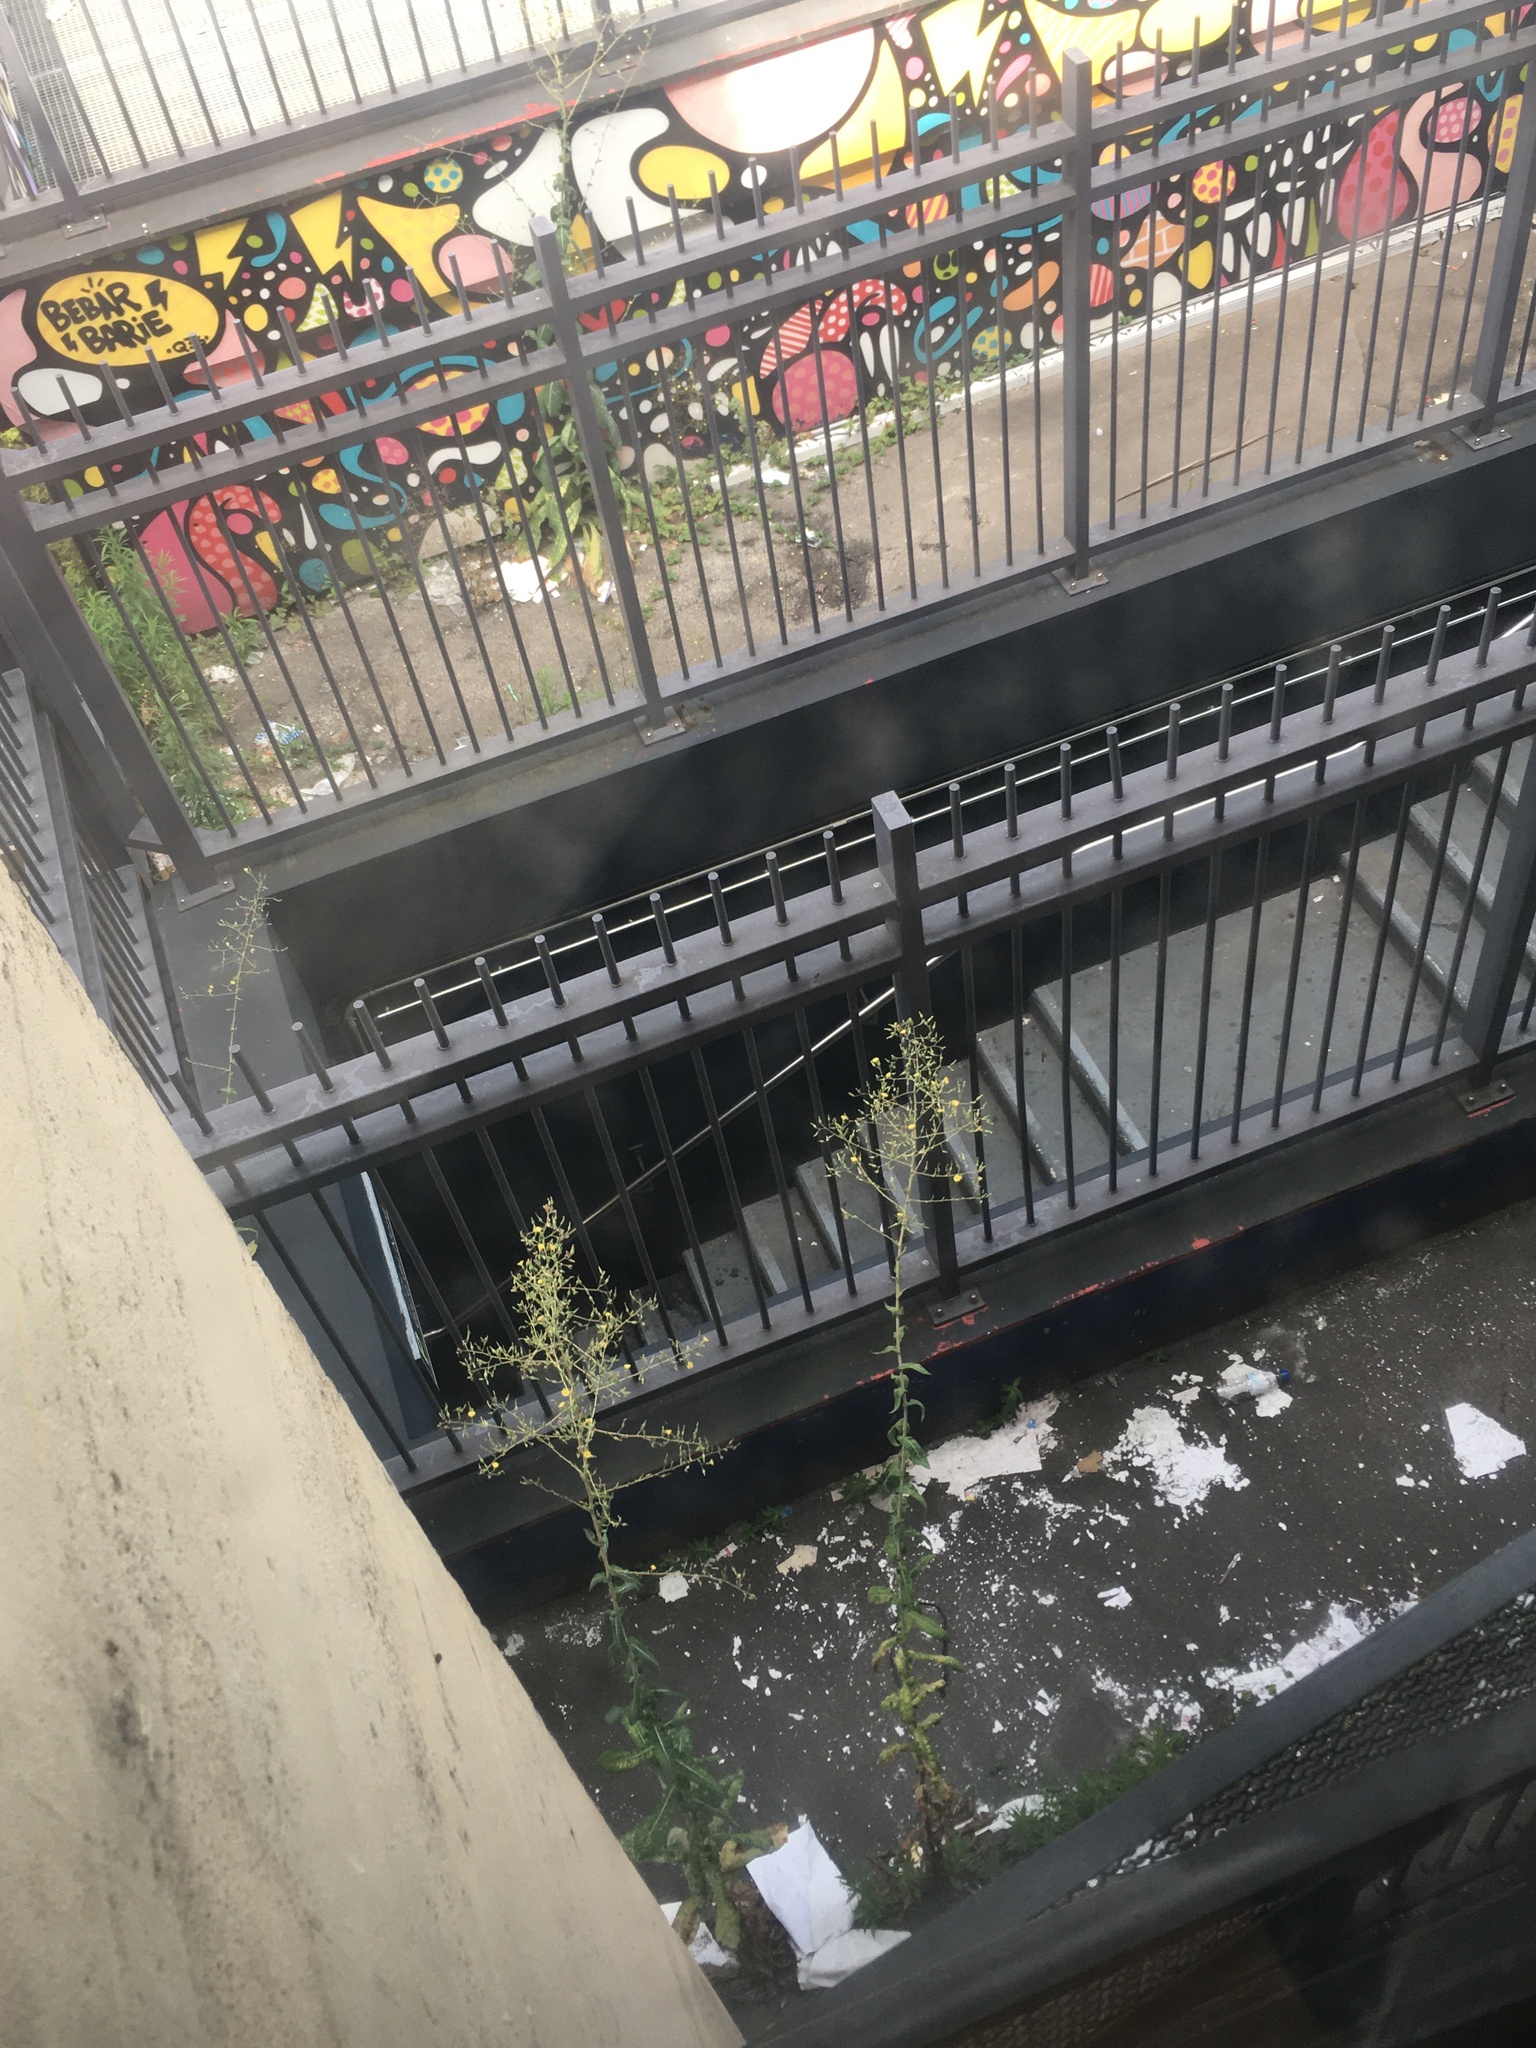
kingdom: Plantae
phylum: Tracheophyta
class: Magnoliopsida
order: Asterales
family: Asteraceae
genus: Lactuca
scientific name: Lactuca serriola
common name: Prickly lettuce
